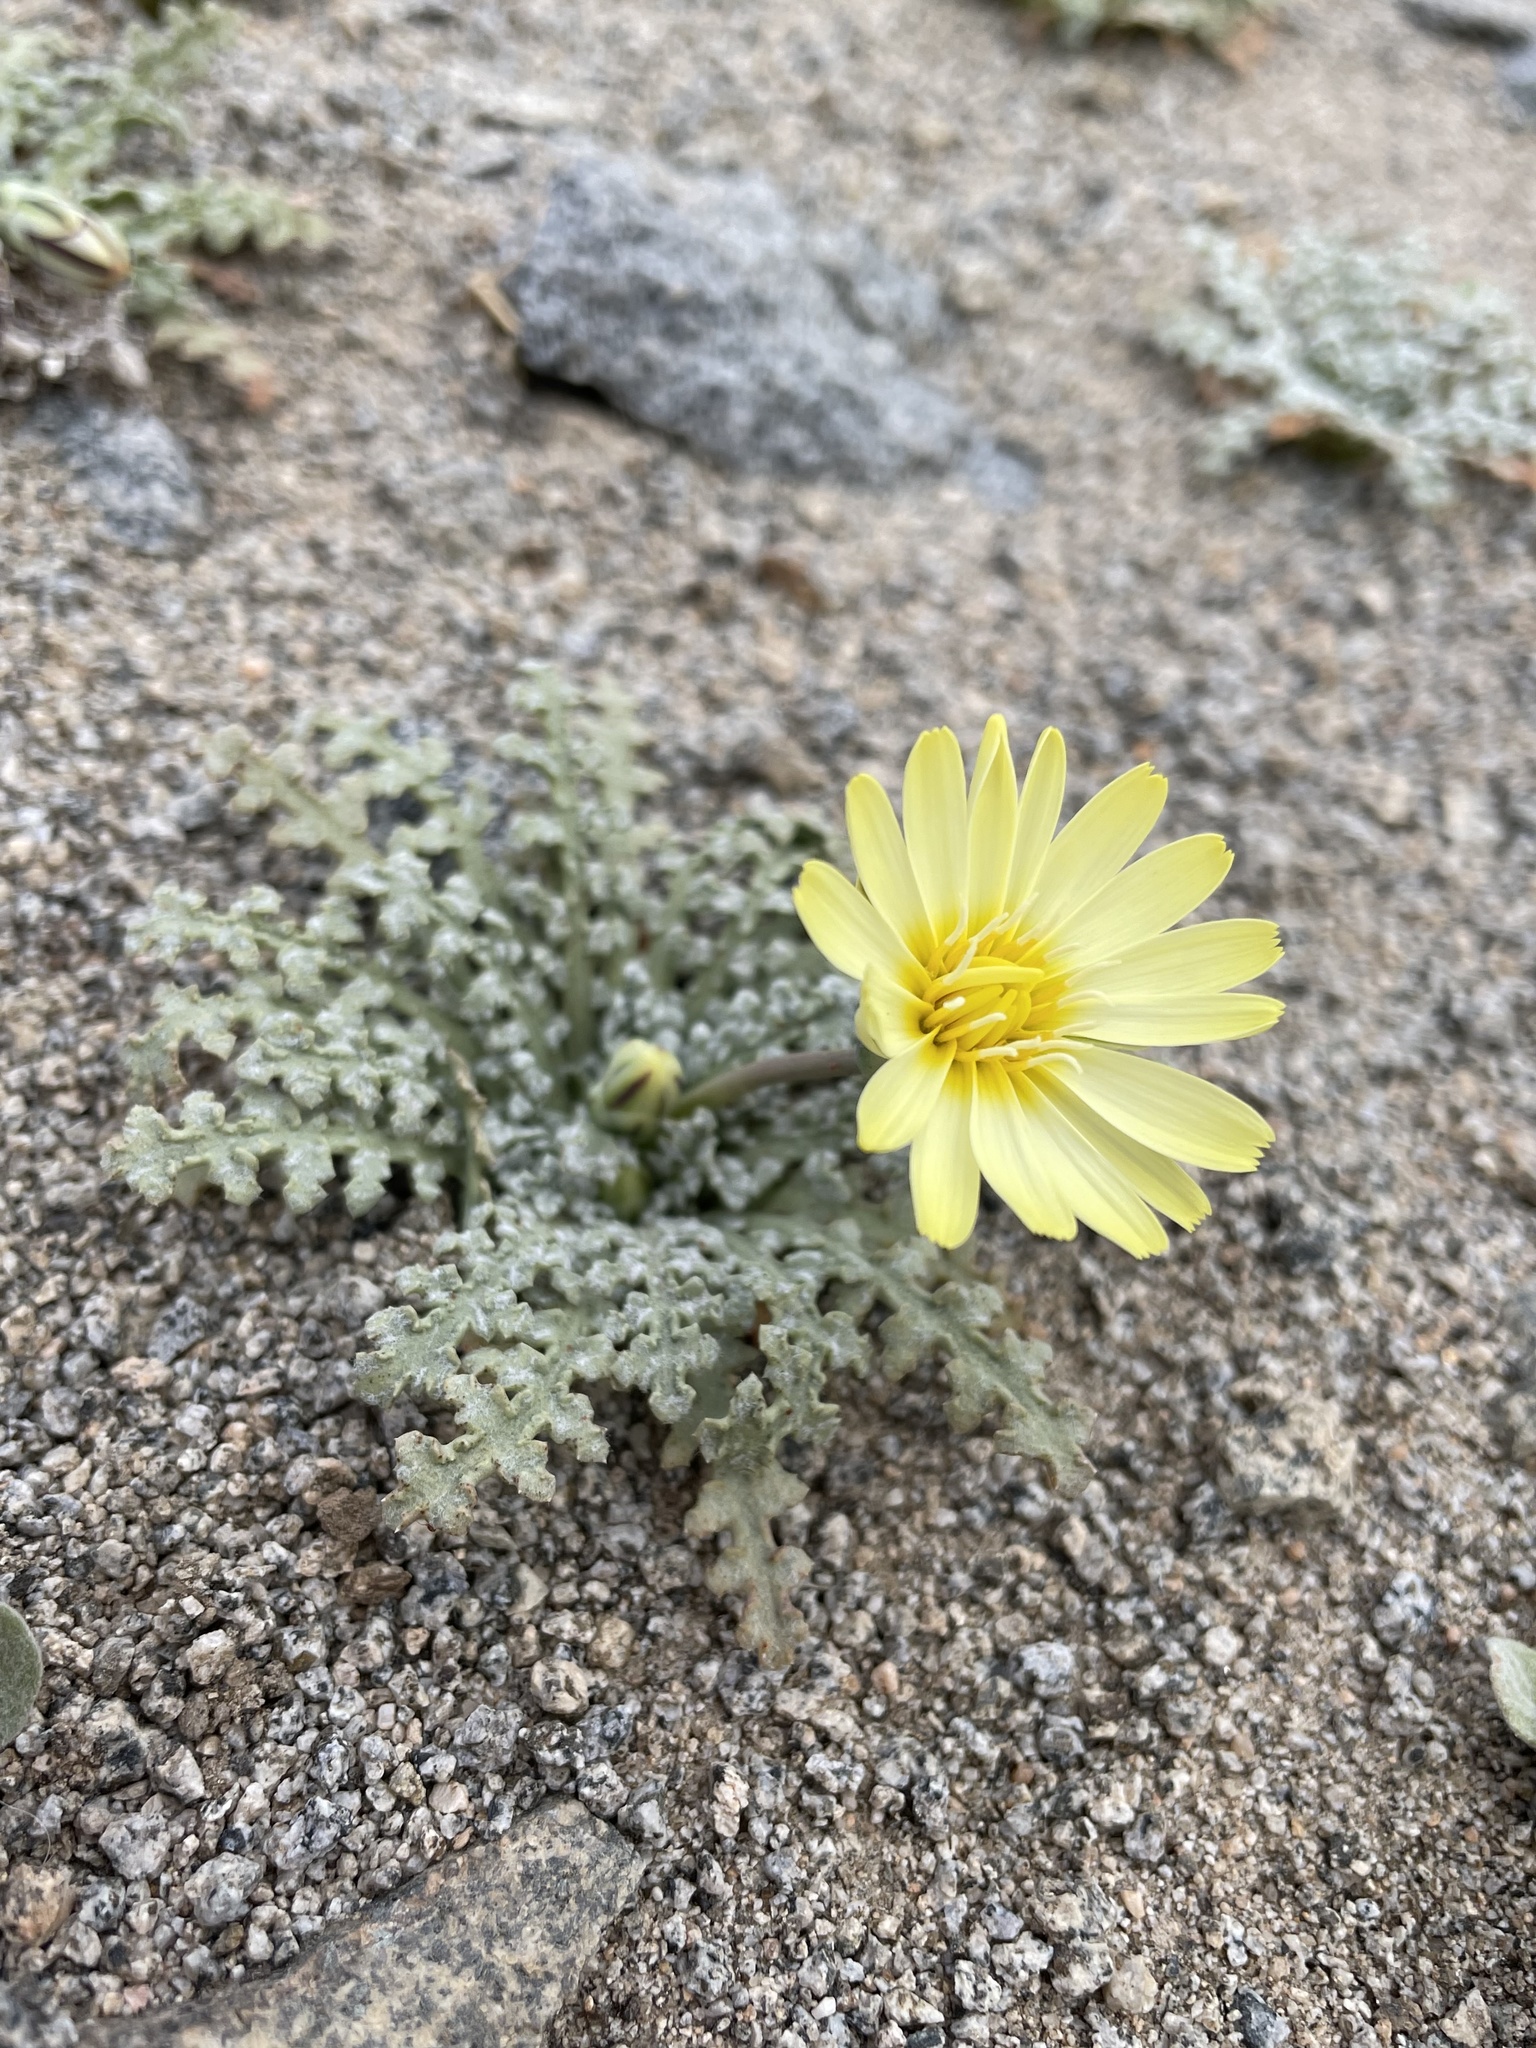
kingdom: Plantae
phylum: Tracheophyta
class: Magnoliopsida
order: Asterales
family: Asteraceae
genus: Anisocoma
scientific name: Anisocoma acaulis
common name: Scalebud
